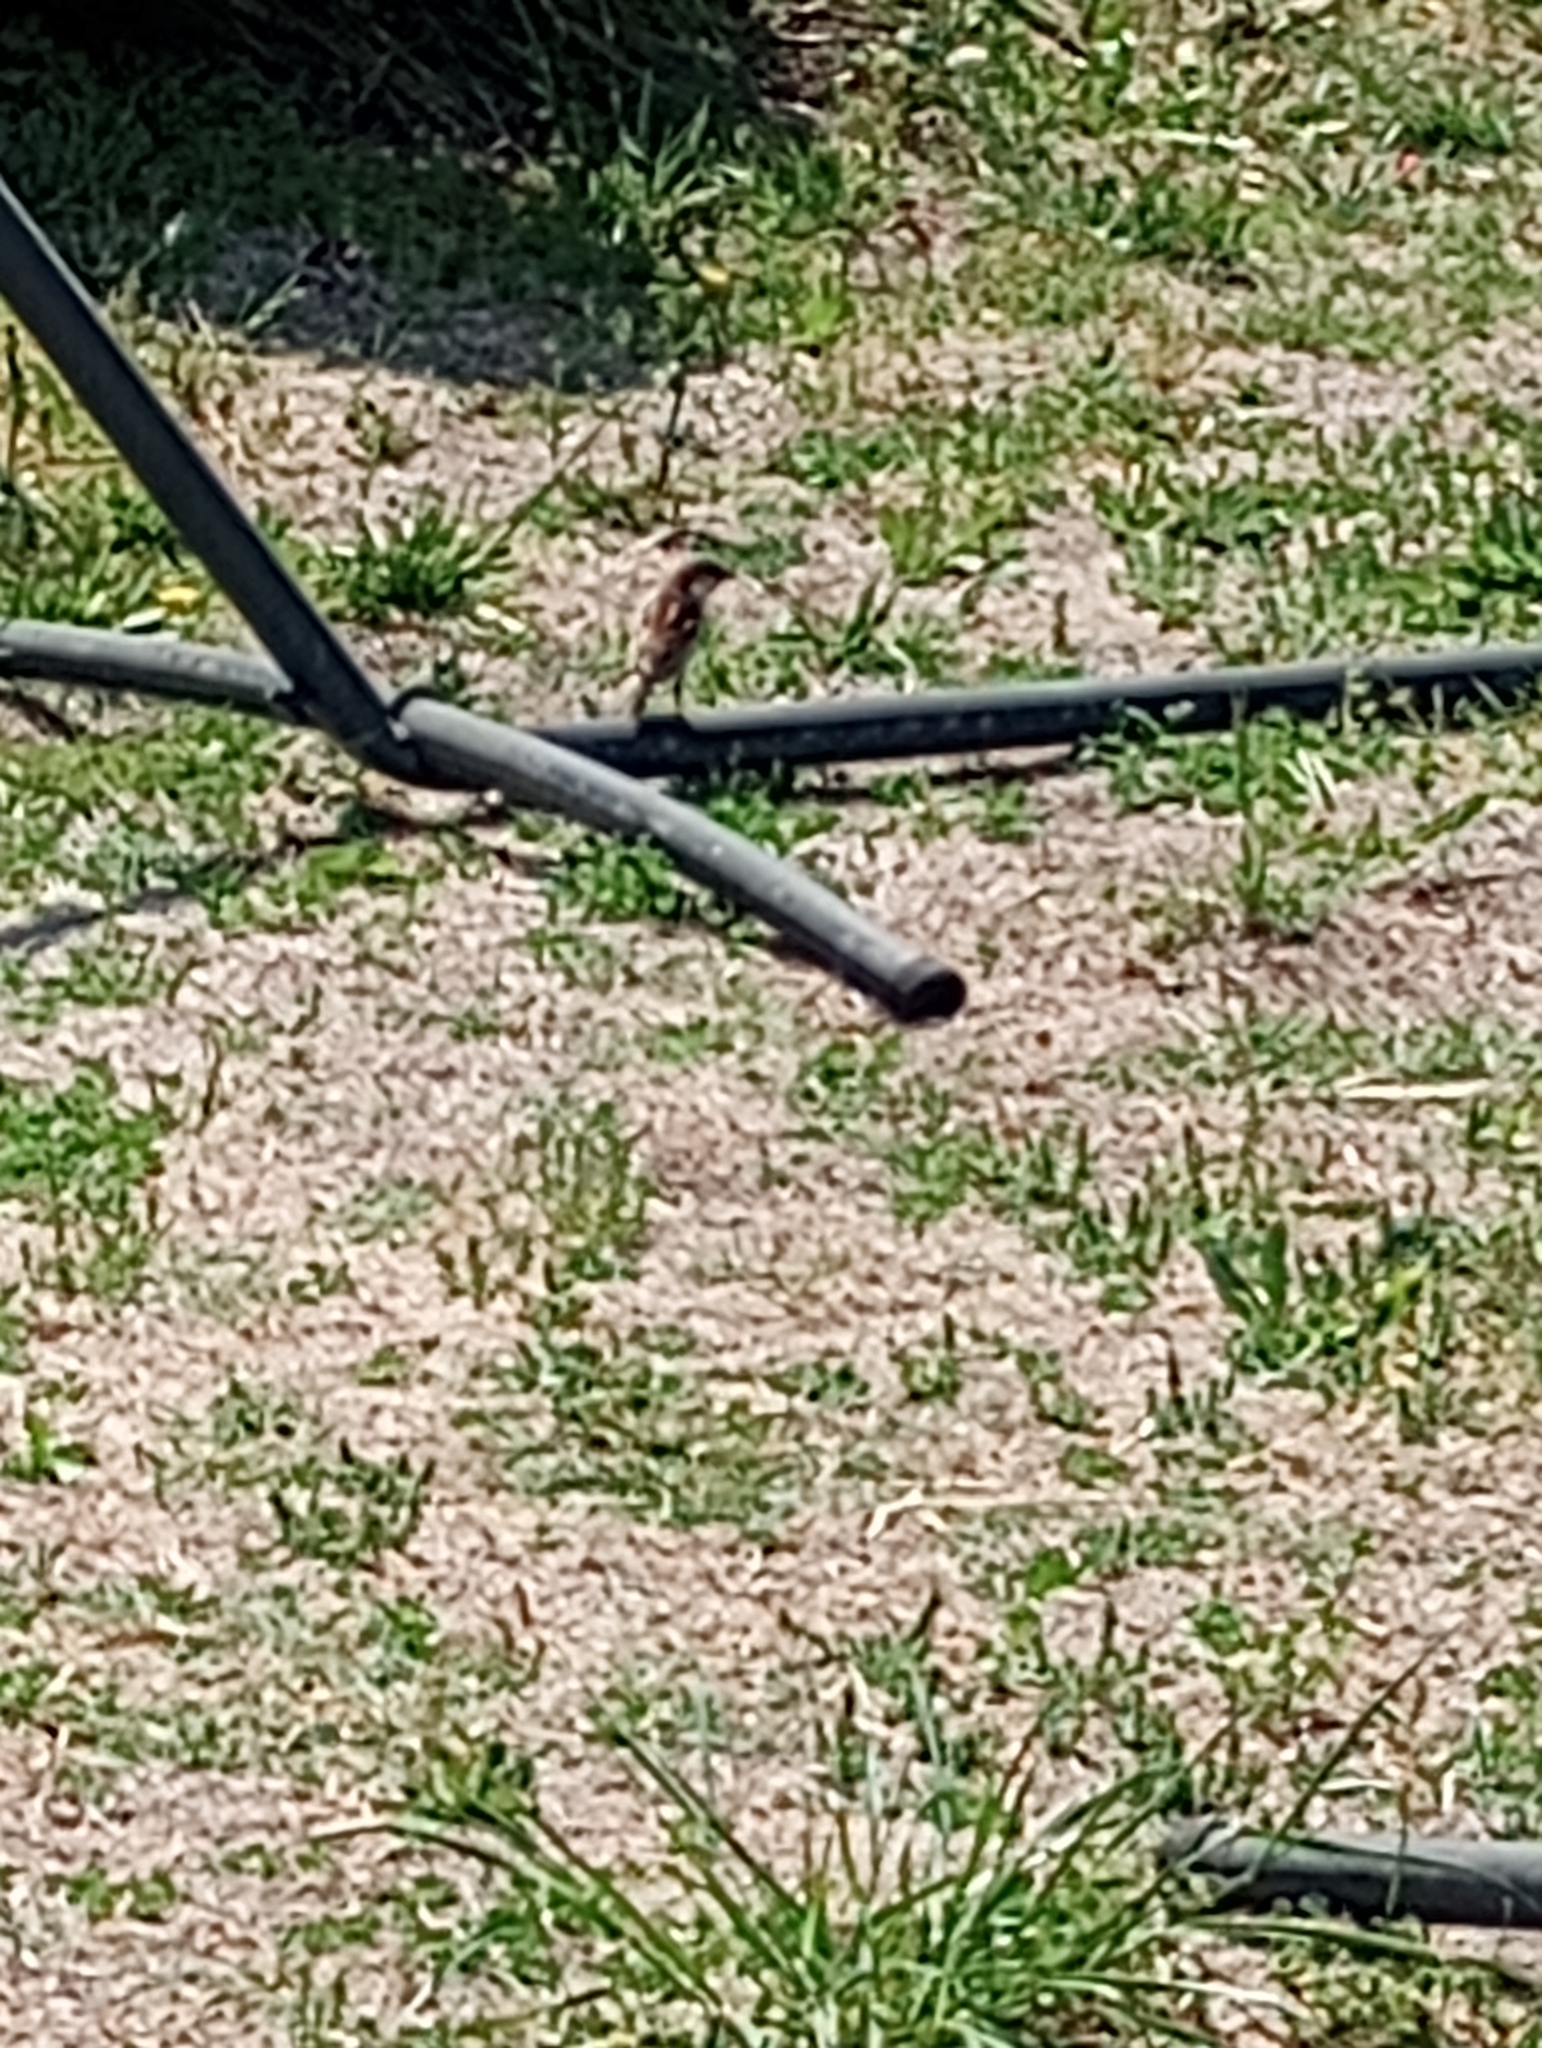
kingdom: Animalia
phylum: Chordata
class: Aves
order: Passeriformes
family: Passeridae
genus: Passer
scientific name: Passer domesticus
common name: House sparrow
